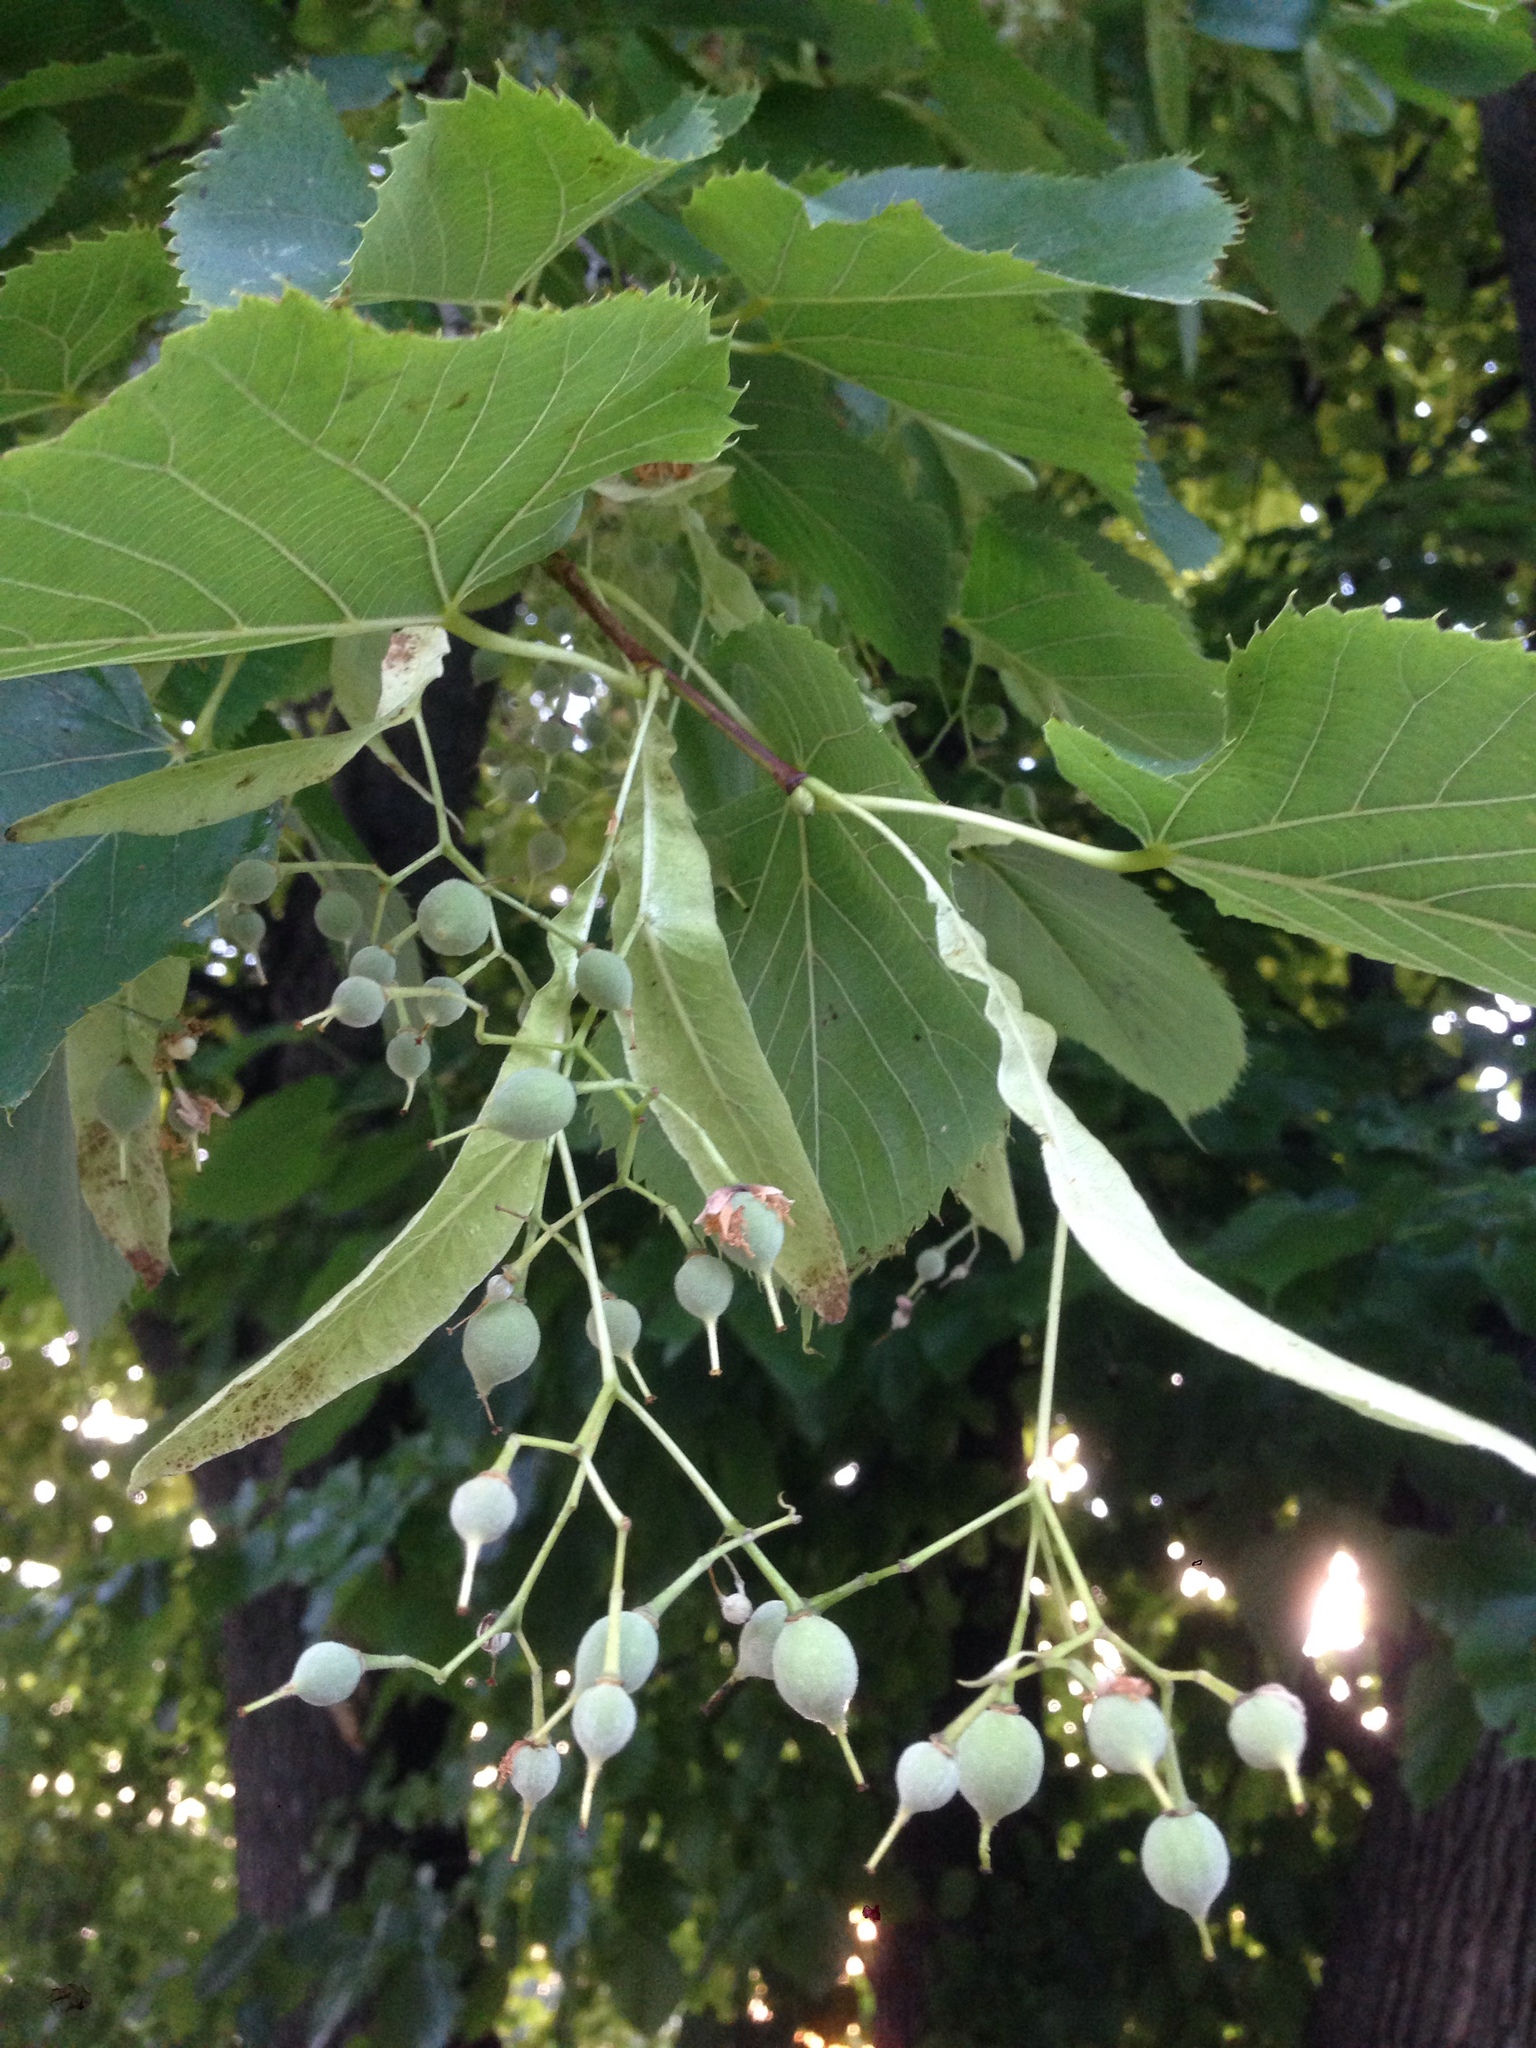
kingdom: Plantae
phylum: Tracheophyta
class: Magnoliopsida
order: Malvales
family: Malvaceae
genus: Tilia
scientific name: Tilia americana
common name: Basswood
